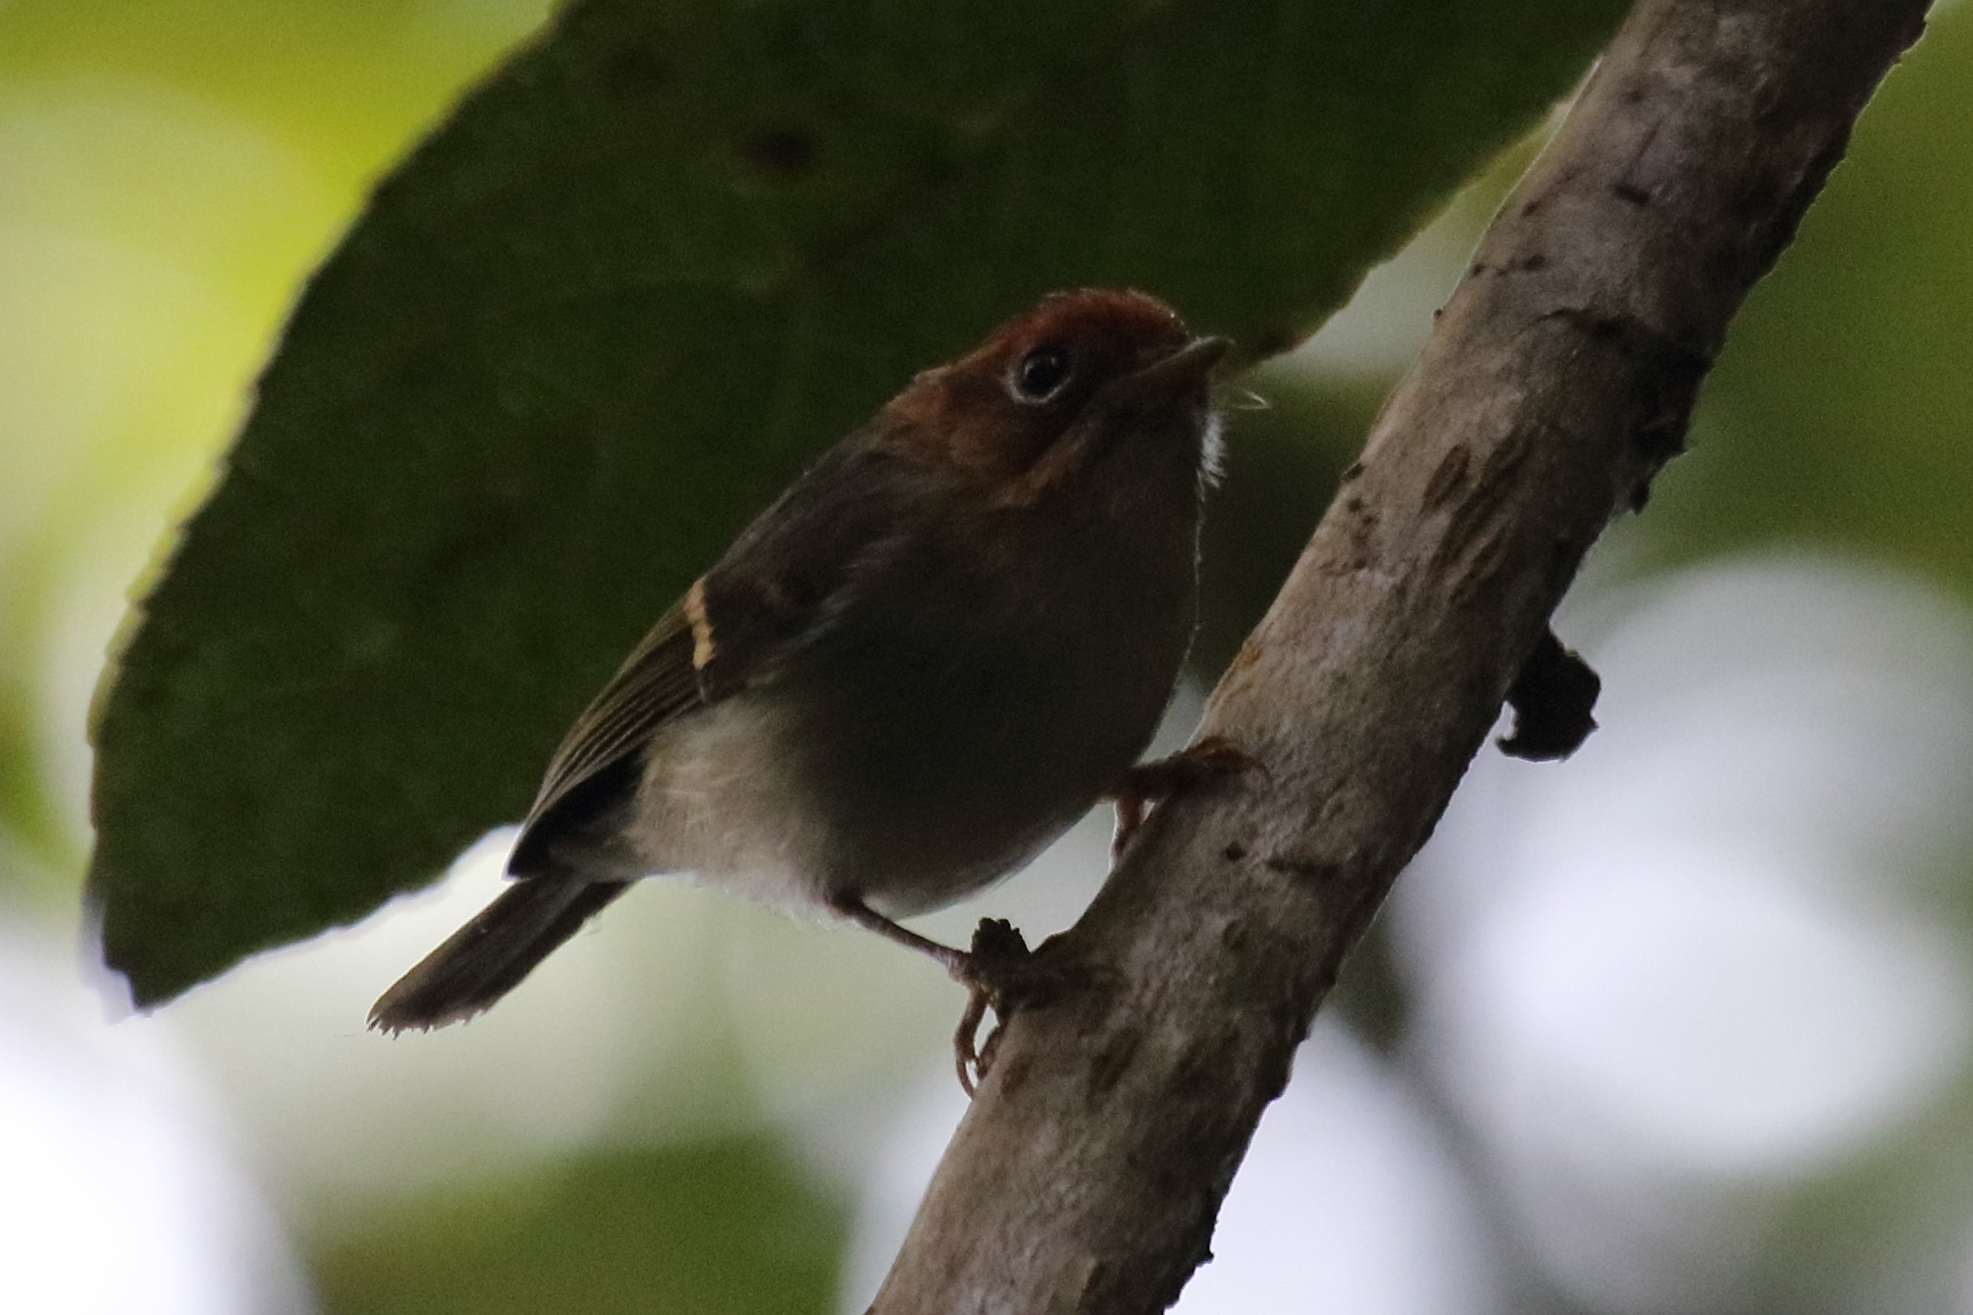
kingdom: Animalia
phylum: Chordata
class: Aves
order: Passeriformes
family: Phylloscopidae
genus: Seicercus
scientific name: Seicercus grammiceps
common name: Sunda warbler
